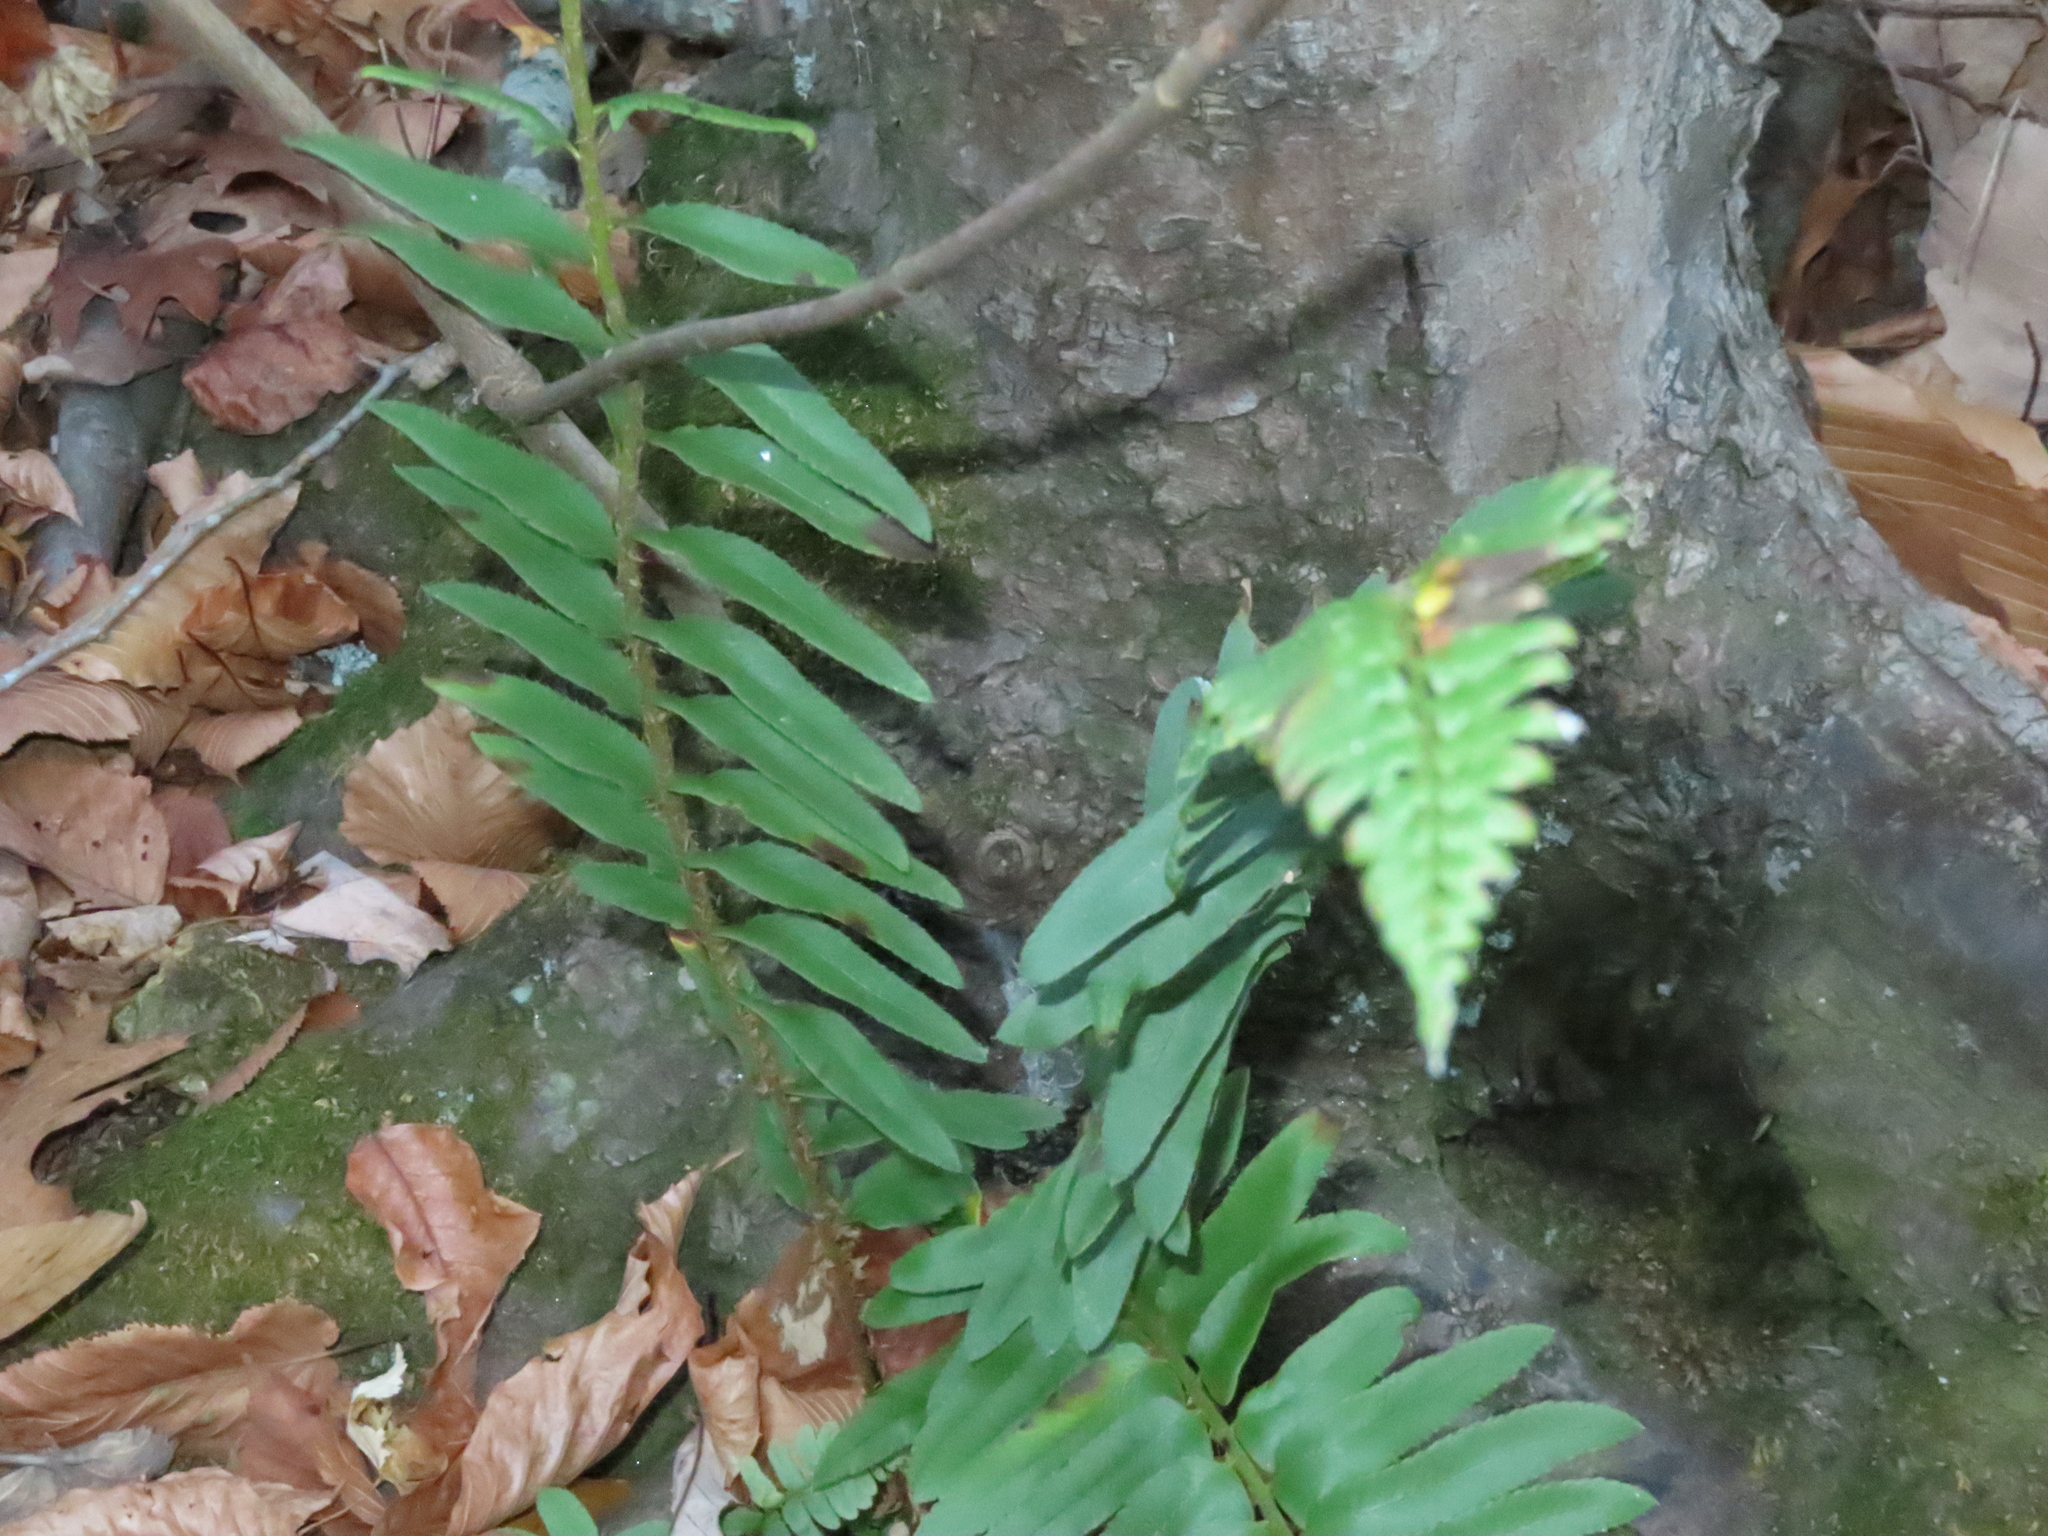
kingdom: Plantae
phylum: Tracheophyta
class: Polypodiopsida
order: Polypodiales
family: Dryopteridaceae
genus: Polystichum
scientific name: Polystichum acrostichoides
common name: Christmas fern
